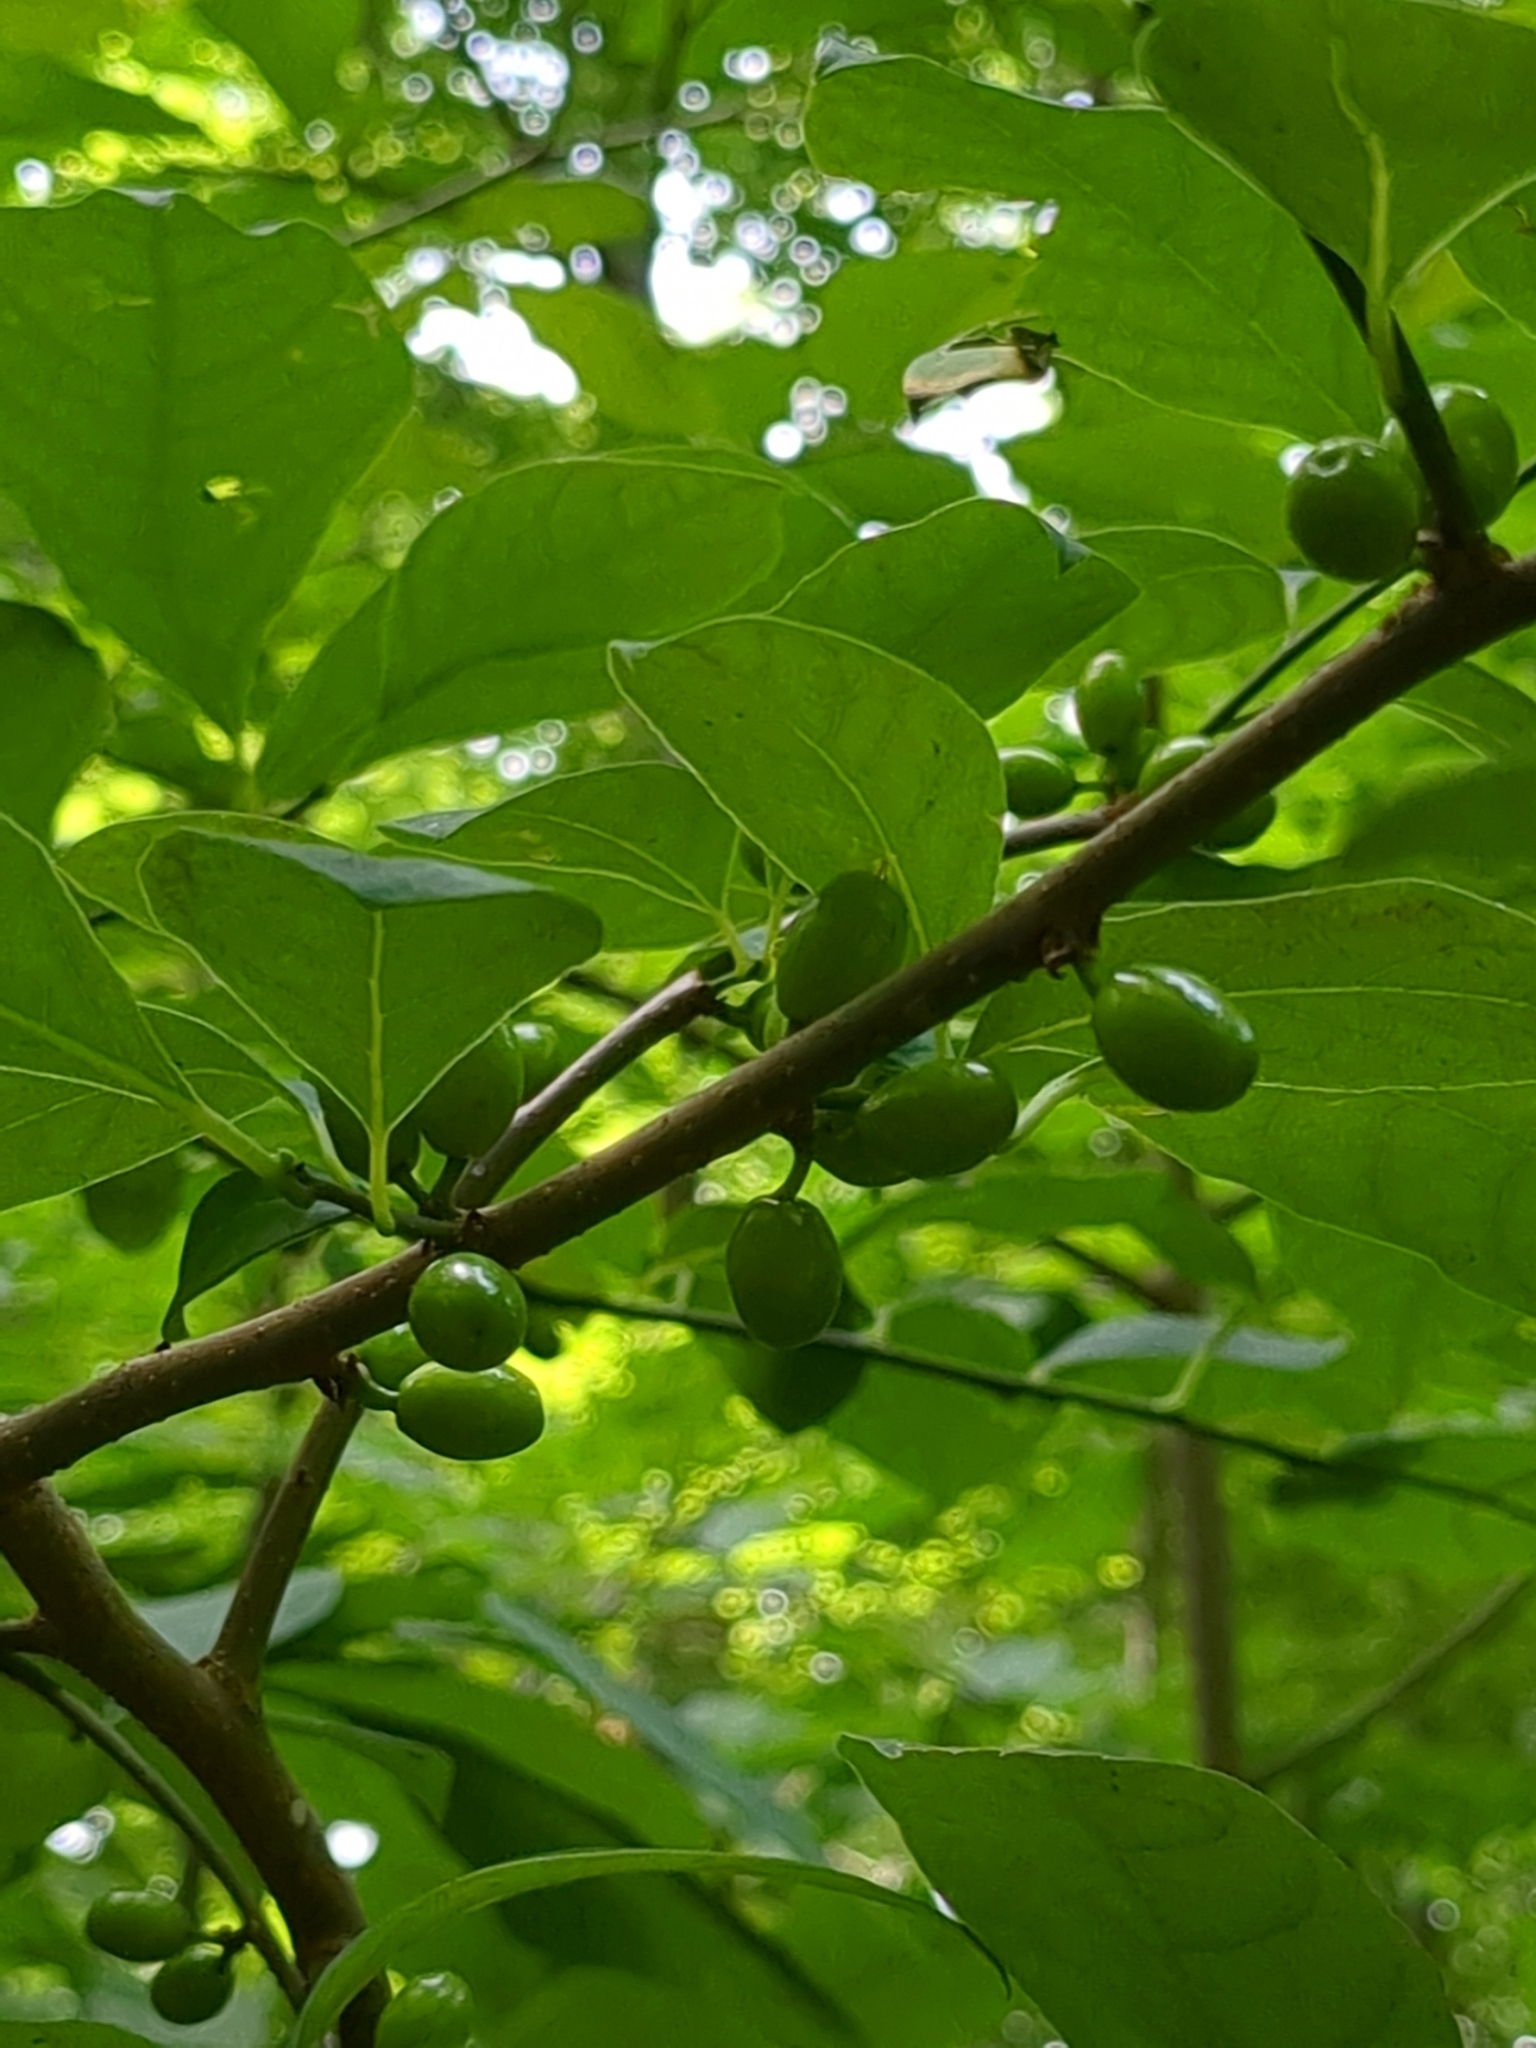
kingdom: Plantae
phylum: Tracheophyta
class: Magnoliopsida
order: Laurales
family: Lauraceae
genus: Lindera
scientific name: Lindera benzoin
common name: Spicebush
